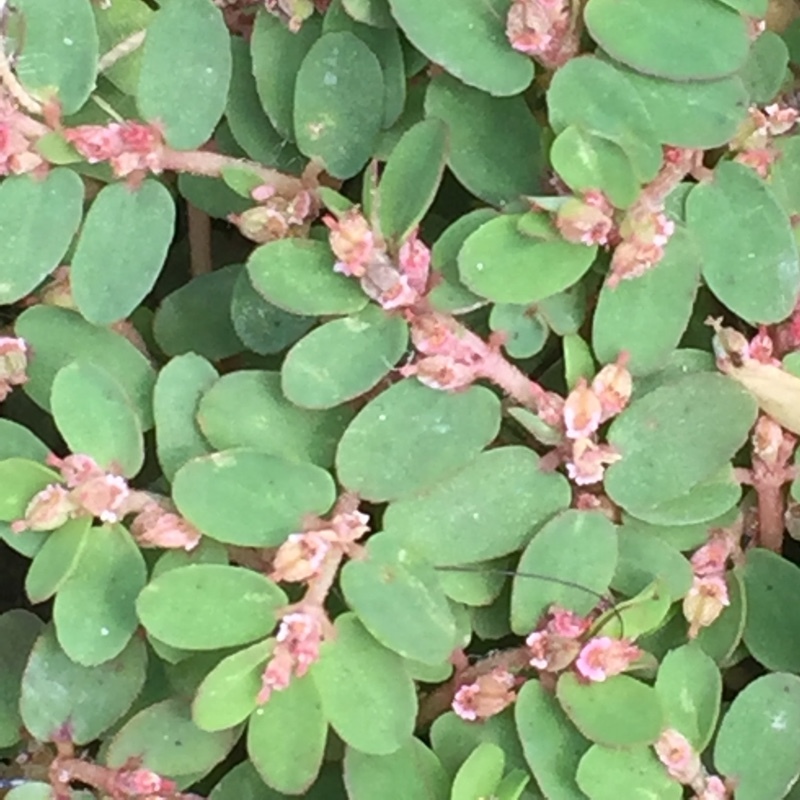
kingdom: Plantae
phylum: Tracheophyta
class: Magnoliopsida
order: Malpighiales
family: Euphorbiaceae
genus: Euphorbia
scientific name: Euphorbia thymifolia
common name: Gulf sandmat
